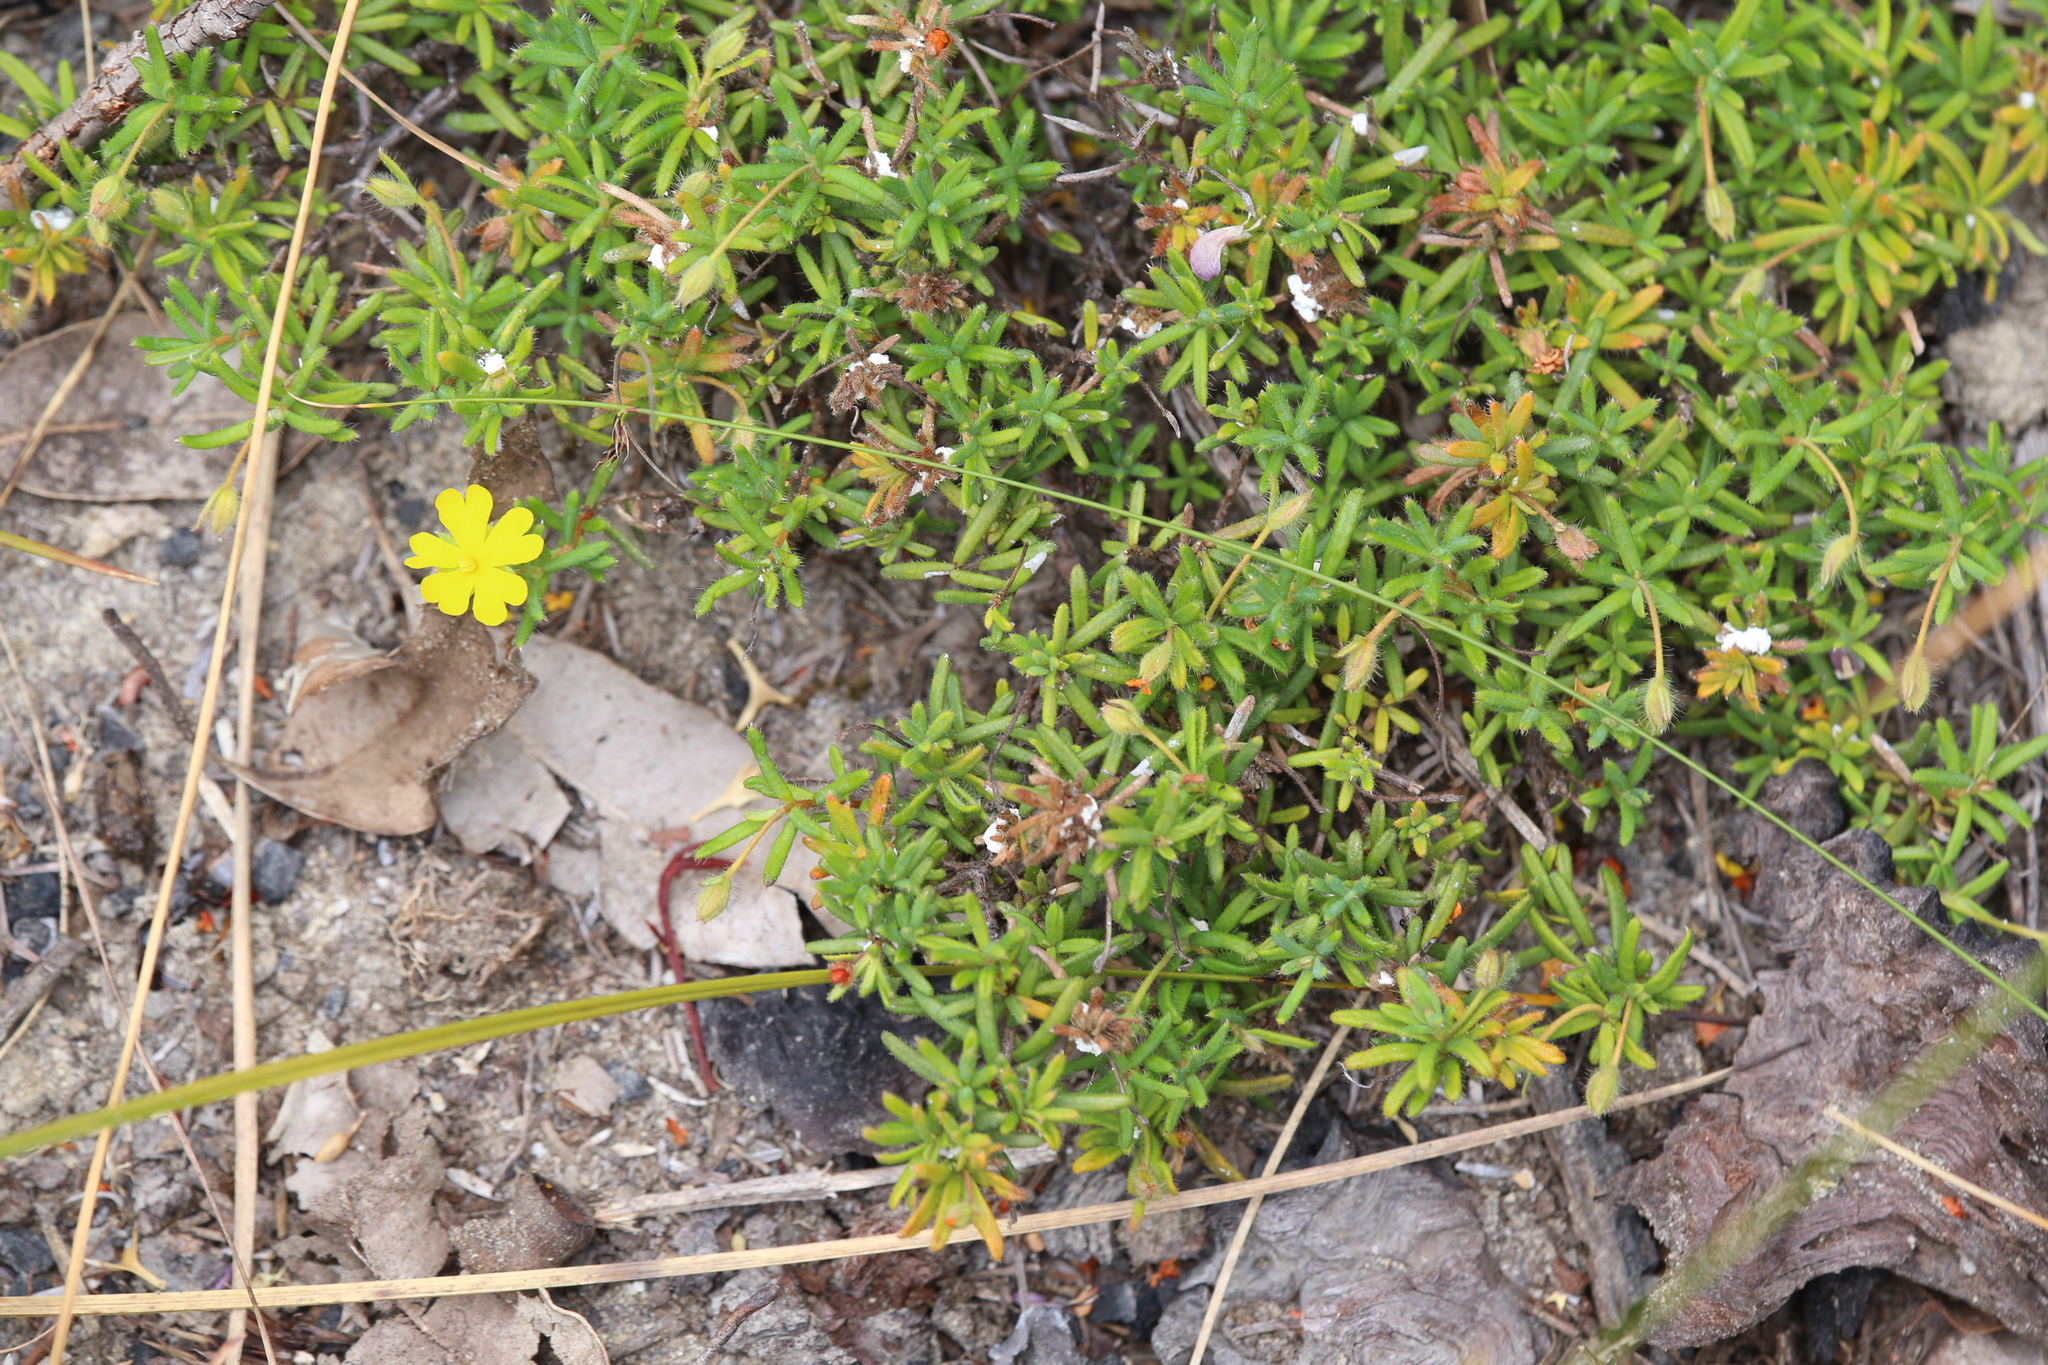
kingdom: Plantae
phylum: Tracheophyta
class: Magnoliopsida
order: Dilleniales
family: Dilleniaceae
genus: Hibbertia
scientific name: Hibbertia diamesogenos
